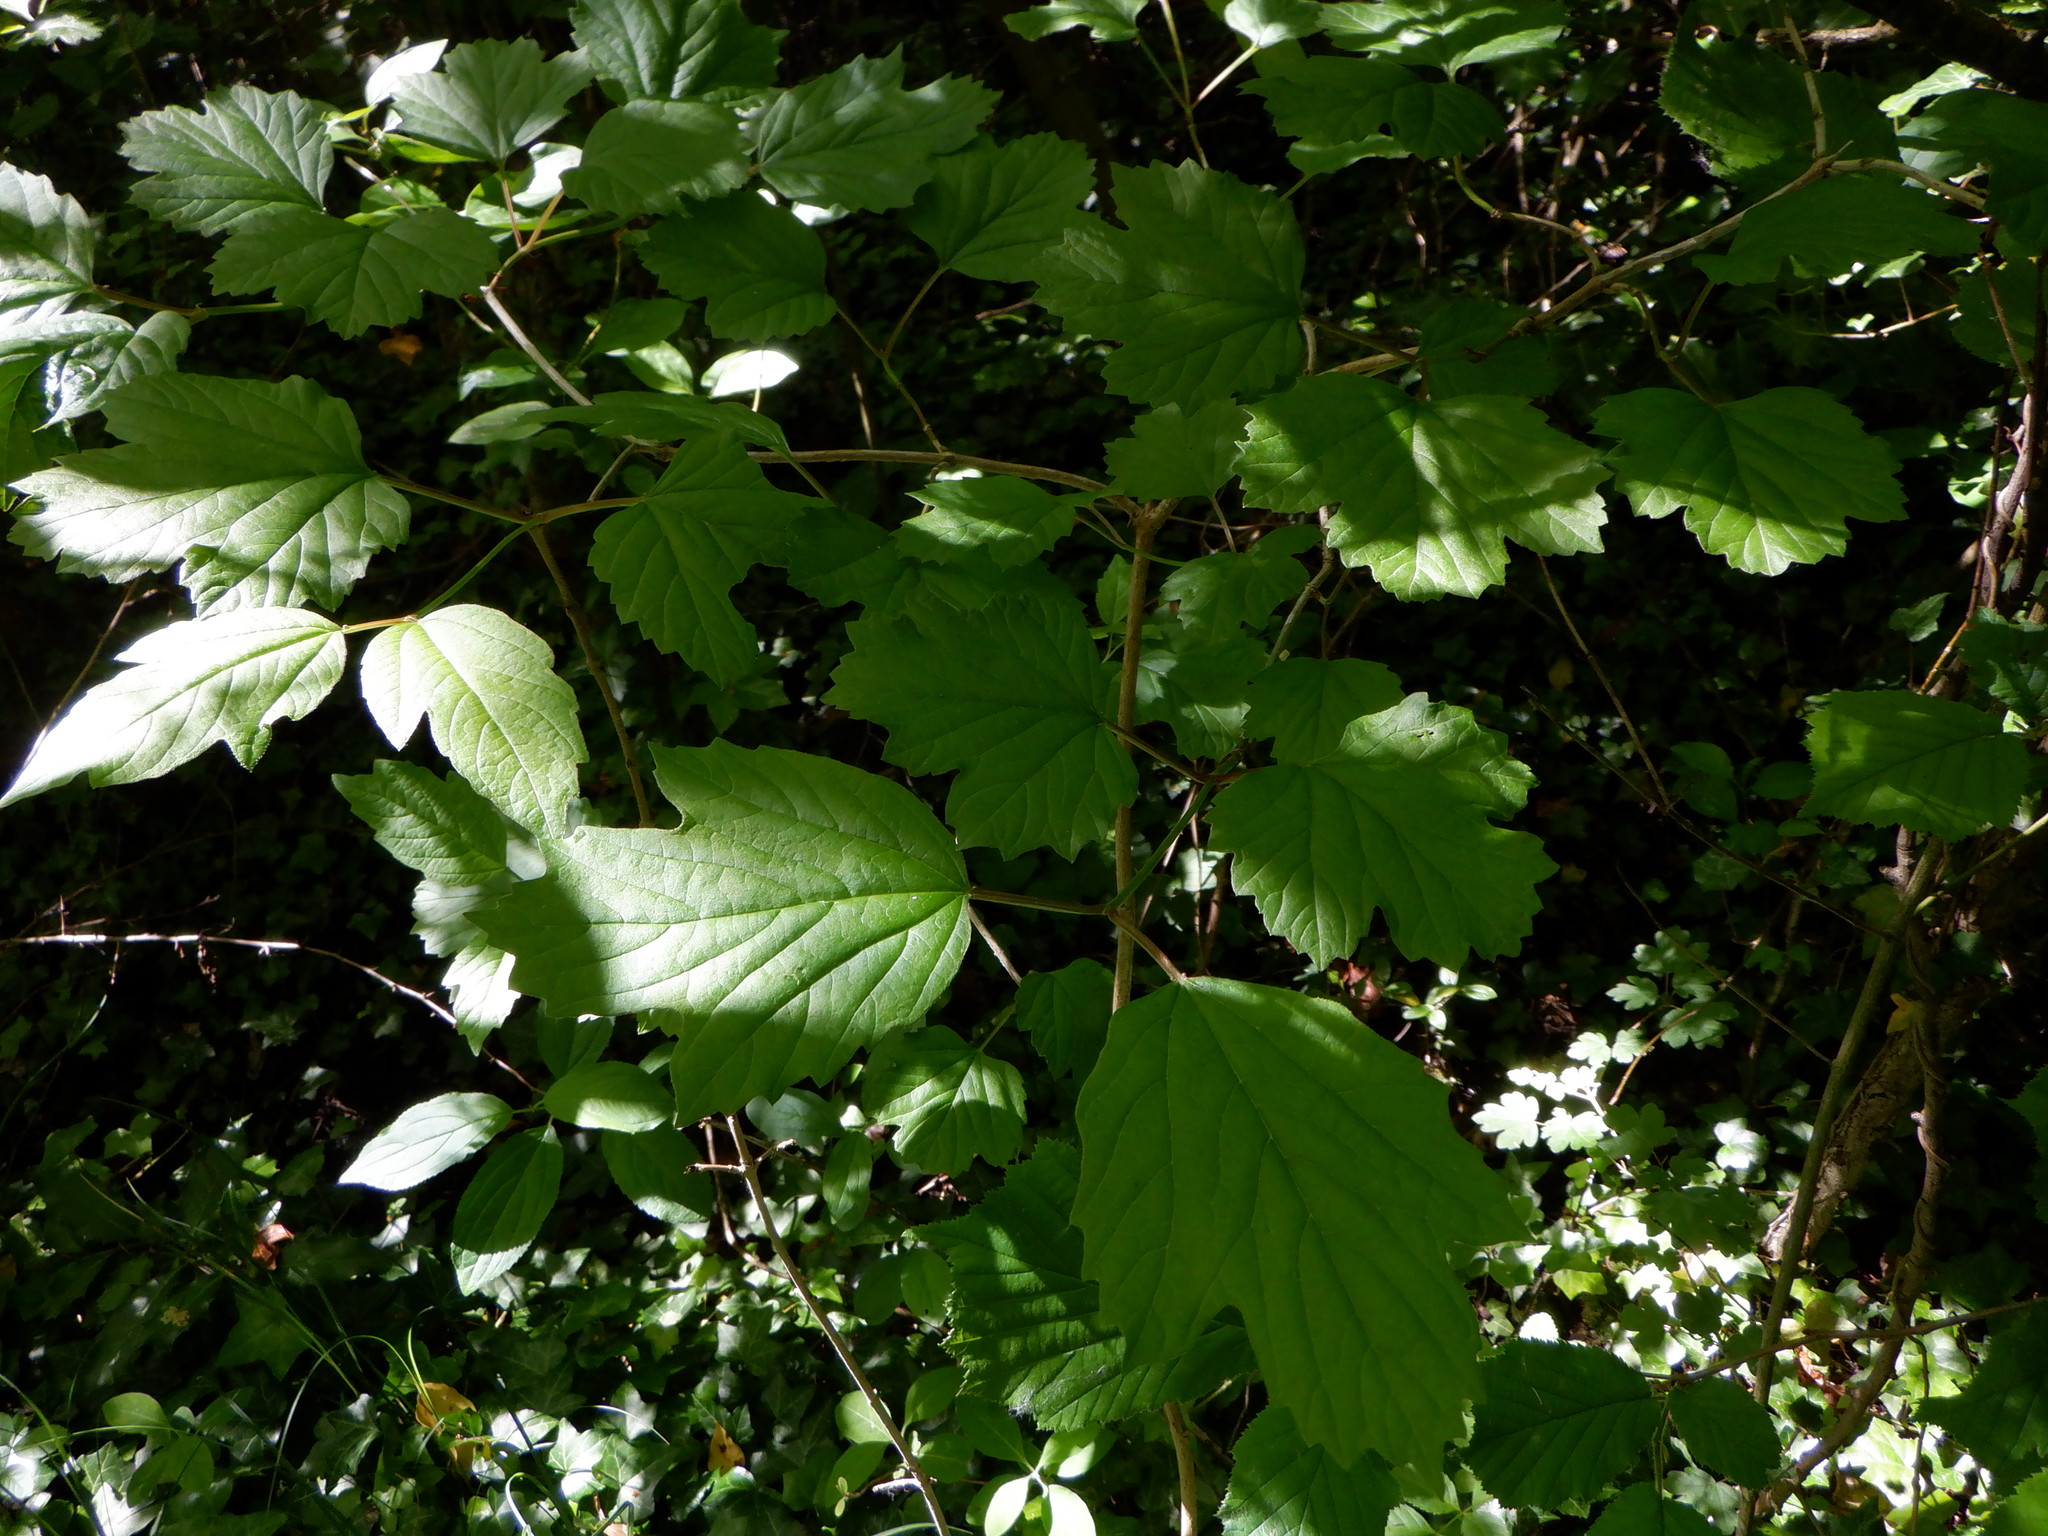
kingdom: Plantae
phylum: Tracheophyta
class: Magnoliopsida
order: Dipsacales
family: Viburnaceae
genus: Viburnum
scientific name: Viburnum opulus
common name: Guelder-rose
